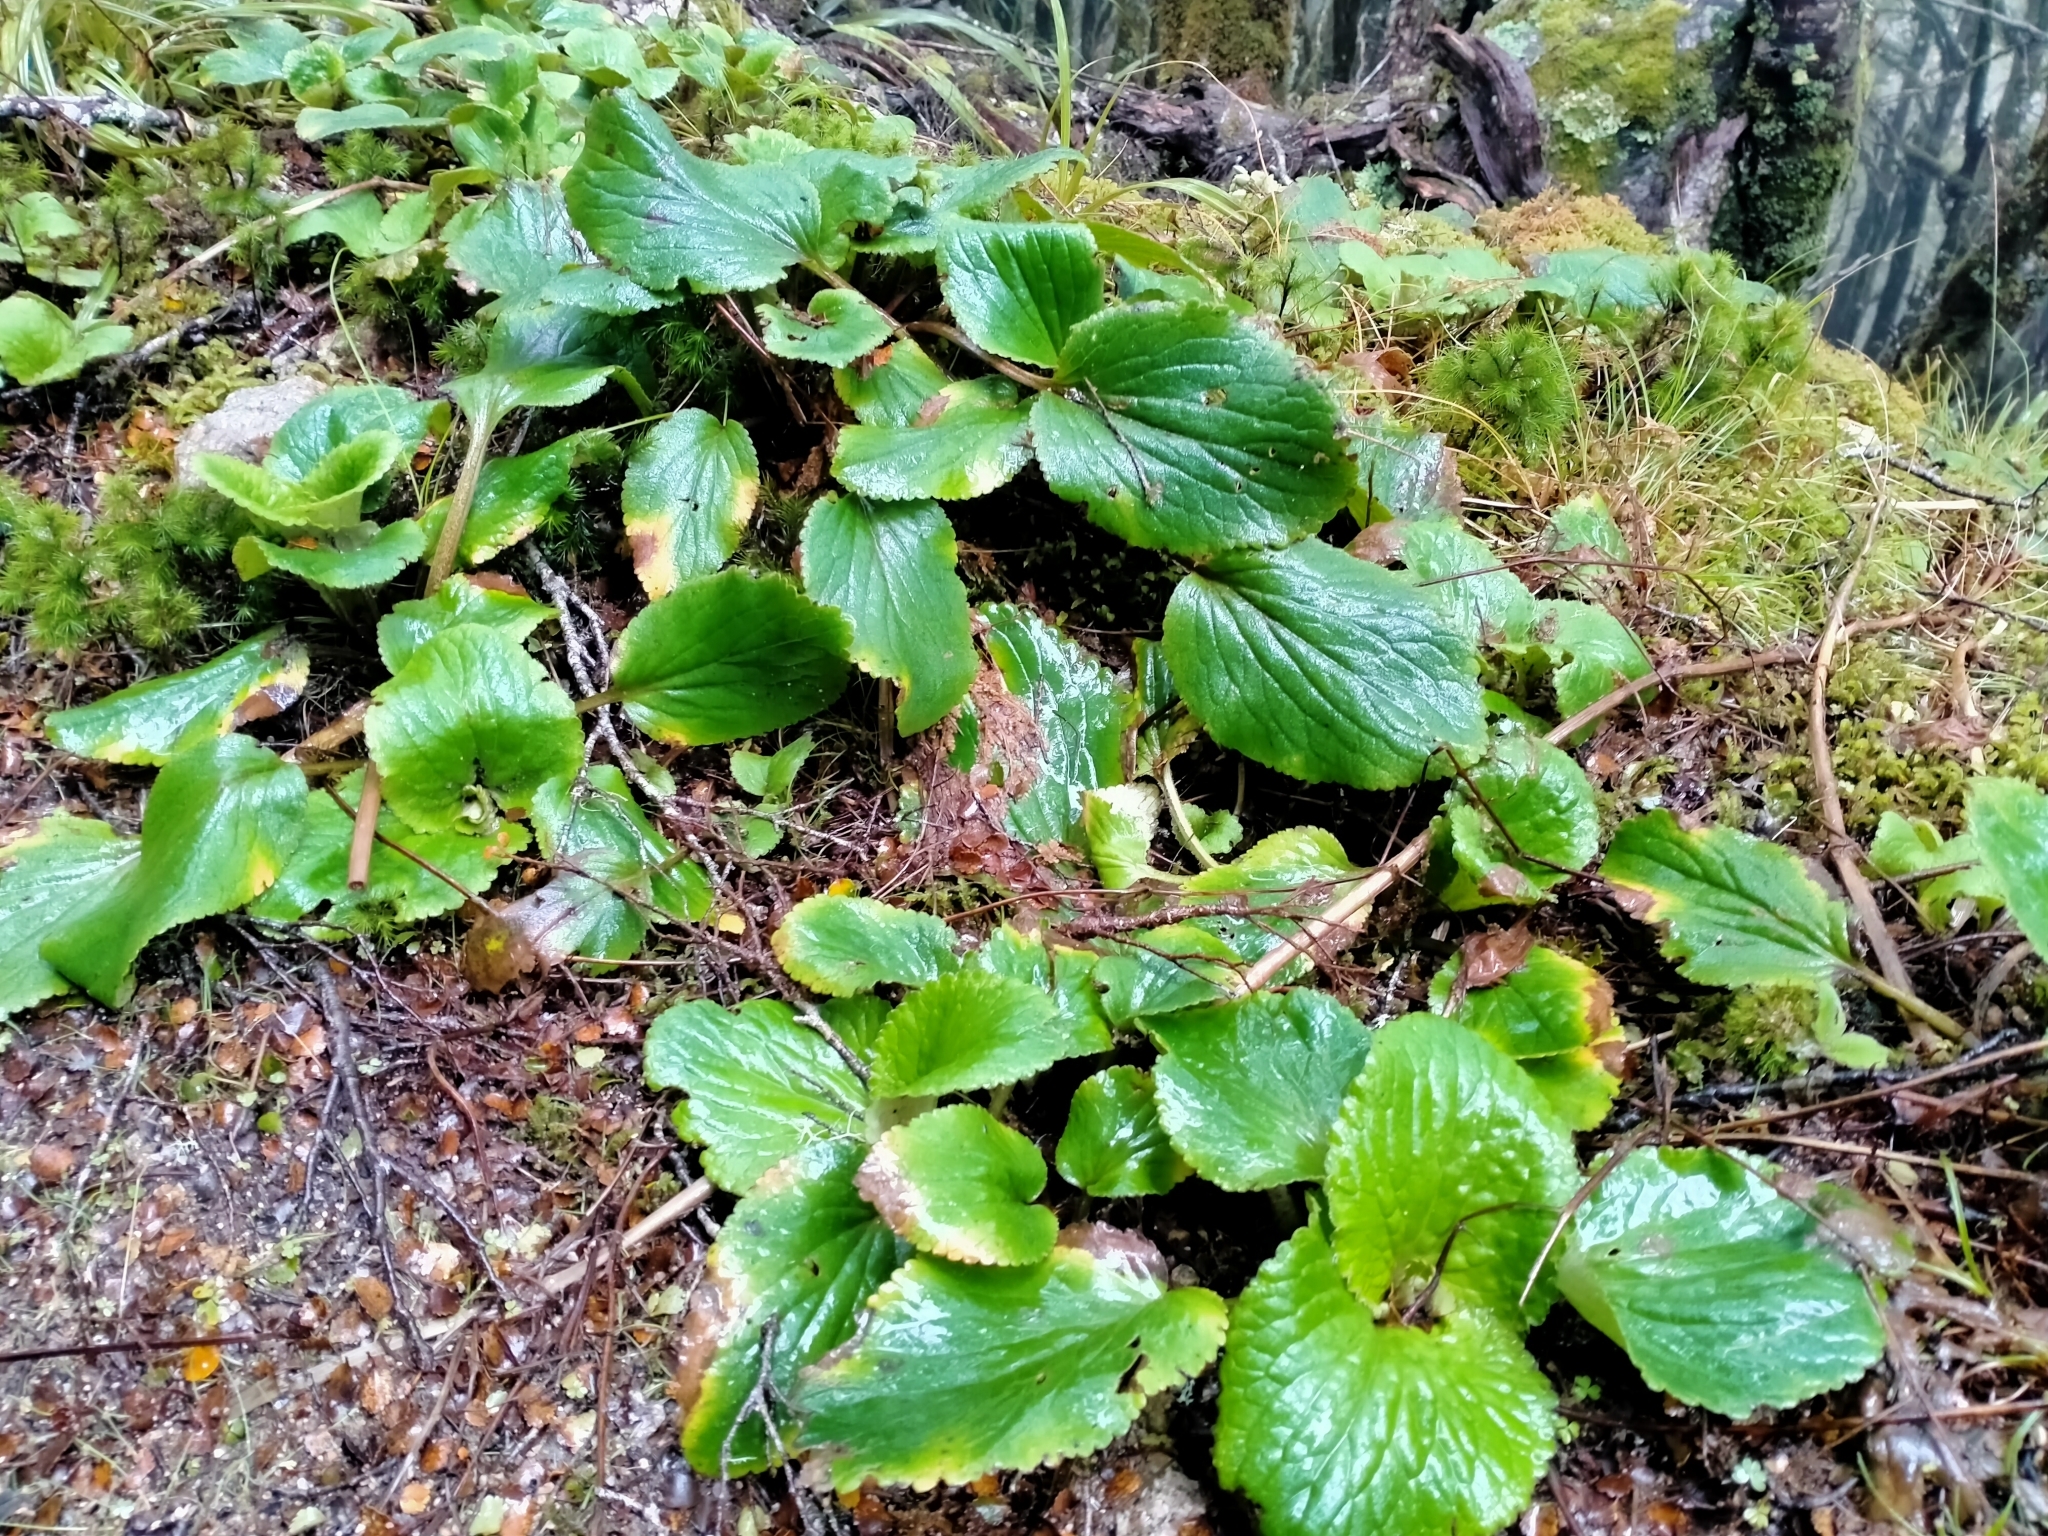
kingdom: Plantae
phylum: Tracheophyta
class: Magnoliopsida
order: Lamiales
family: Plantaginaceae
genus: Ourisia
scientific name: Ourisia macrophylla
